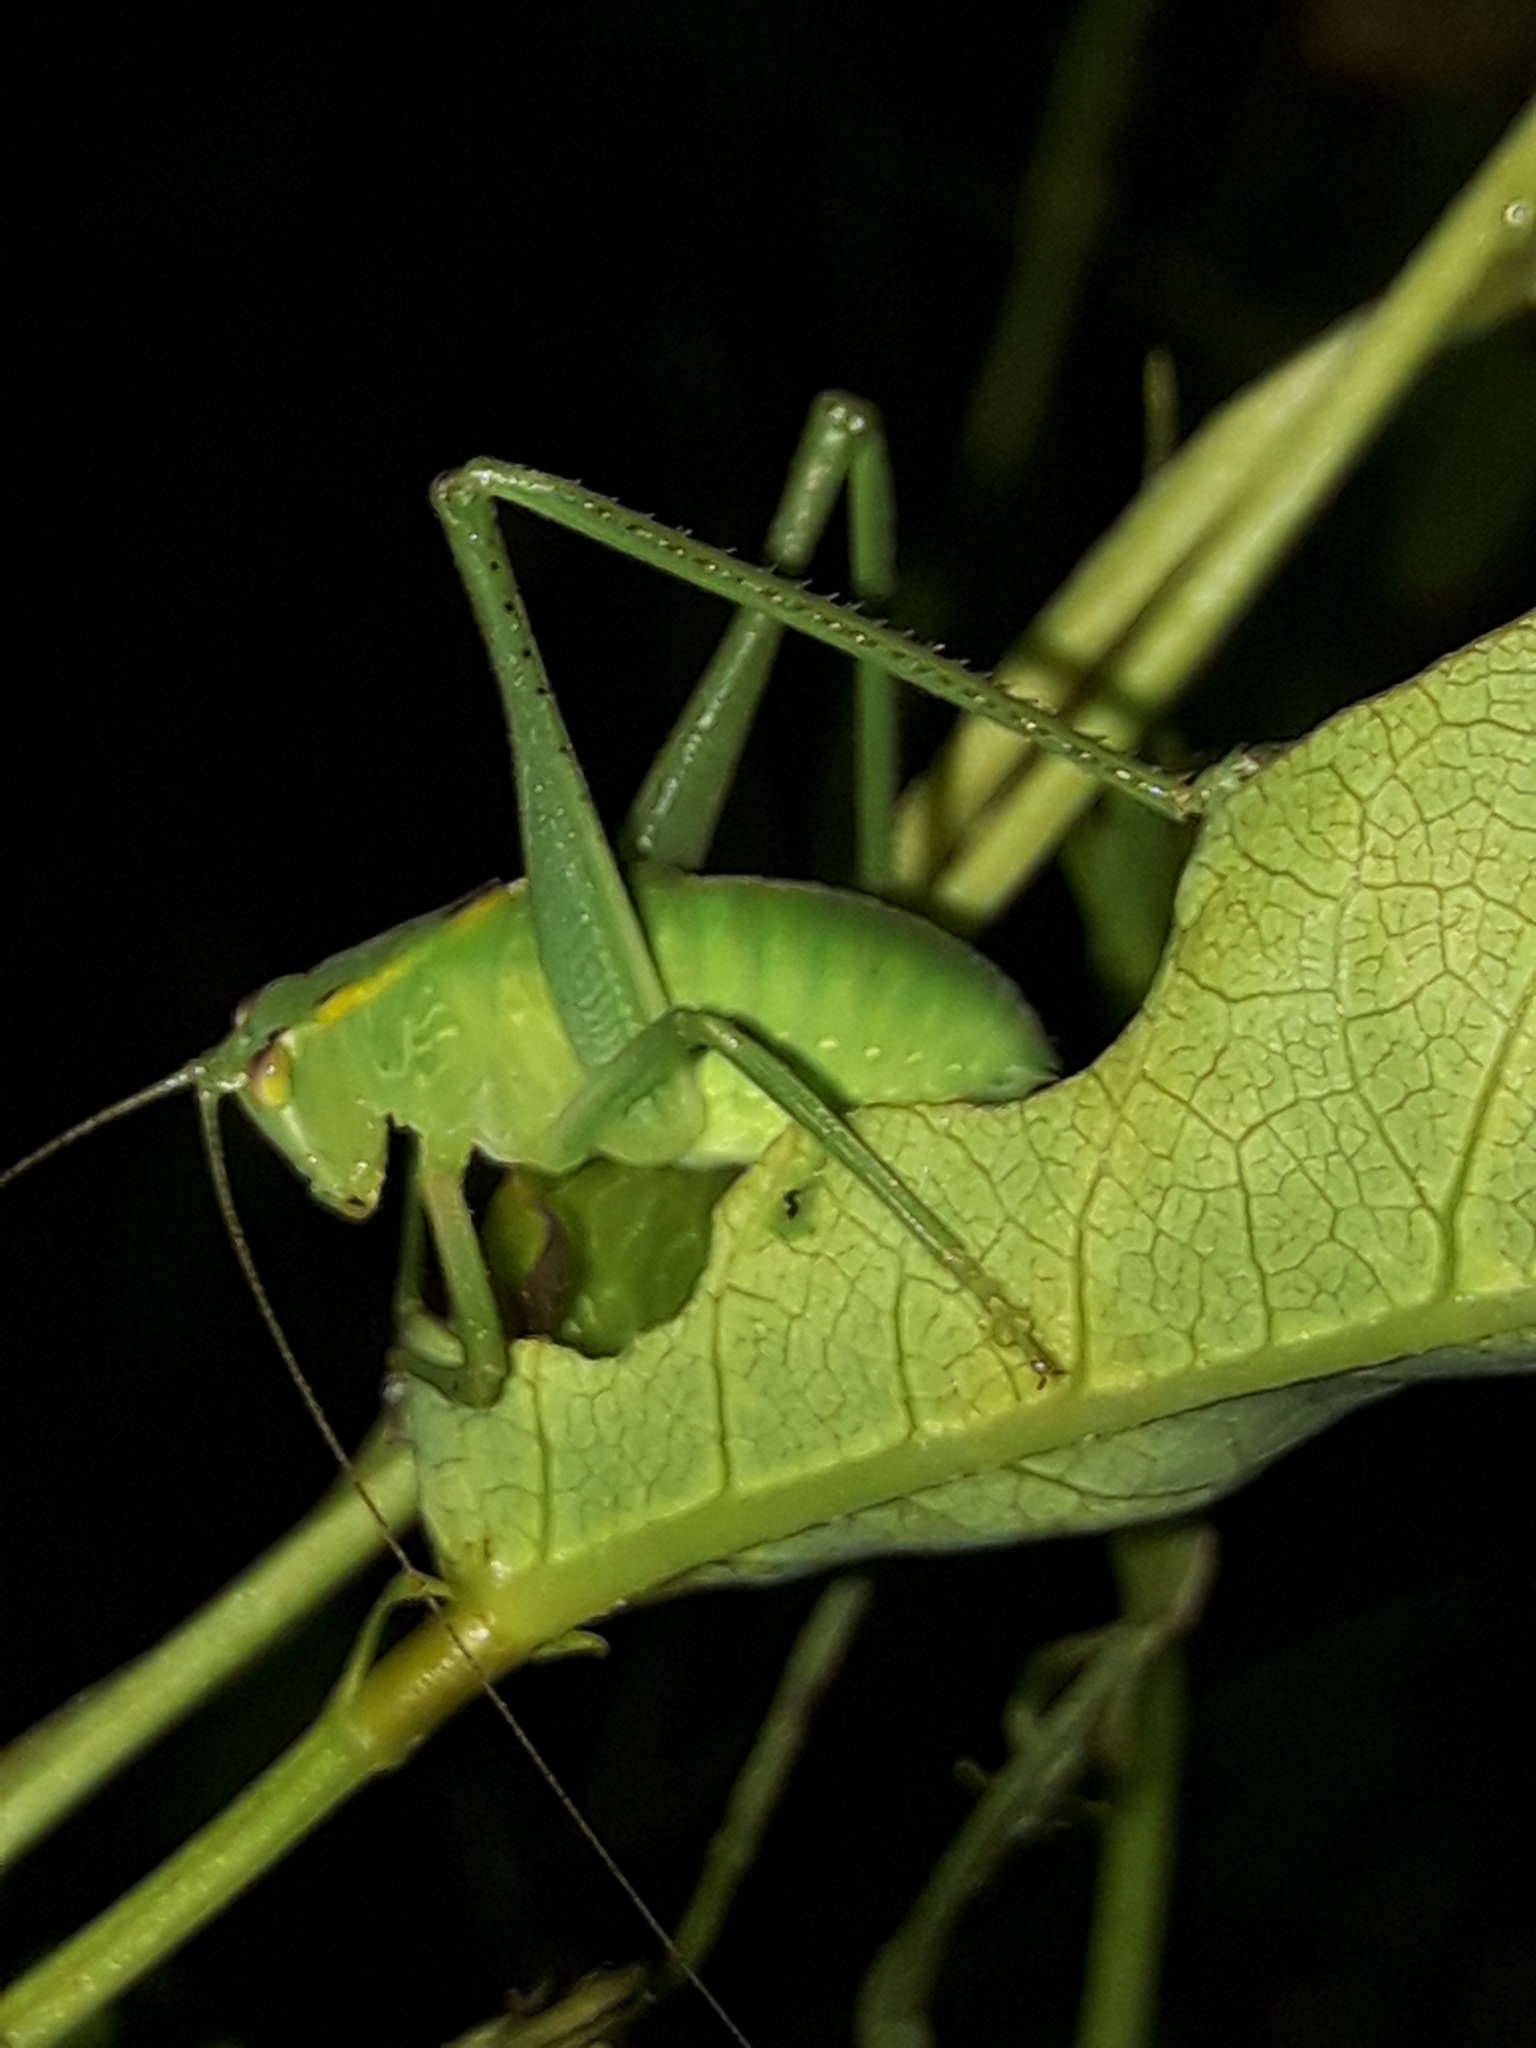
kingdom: Animalia
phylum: Arthropoda
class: Insecta
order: Orthoptera
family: Tettigoniidae
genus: Caedicia
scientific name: Caedicia simplex
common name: Common garden katydid
